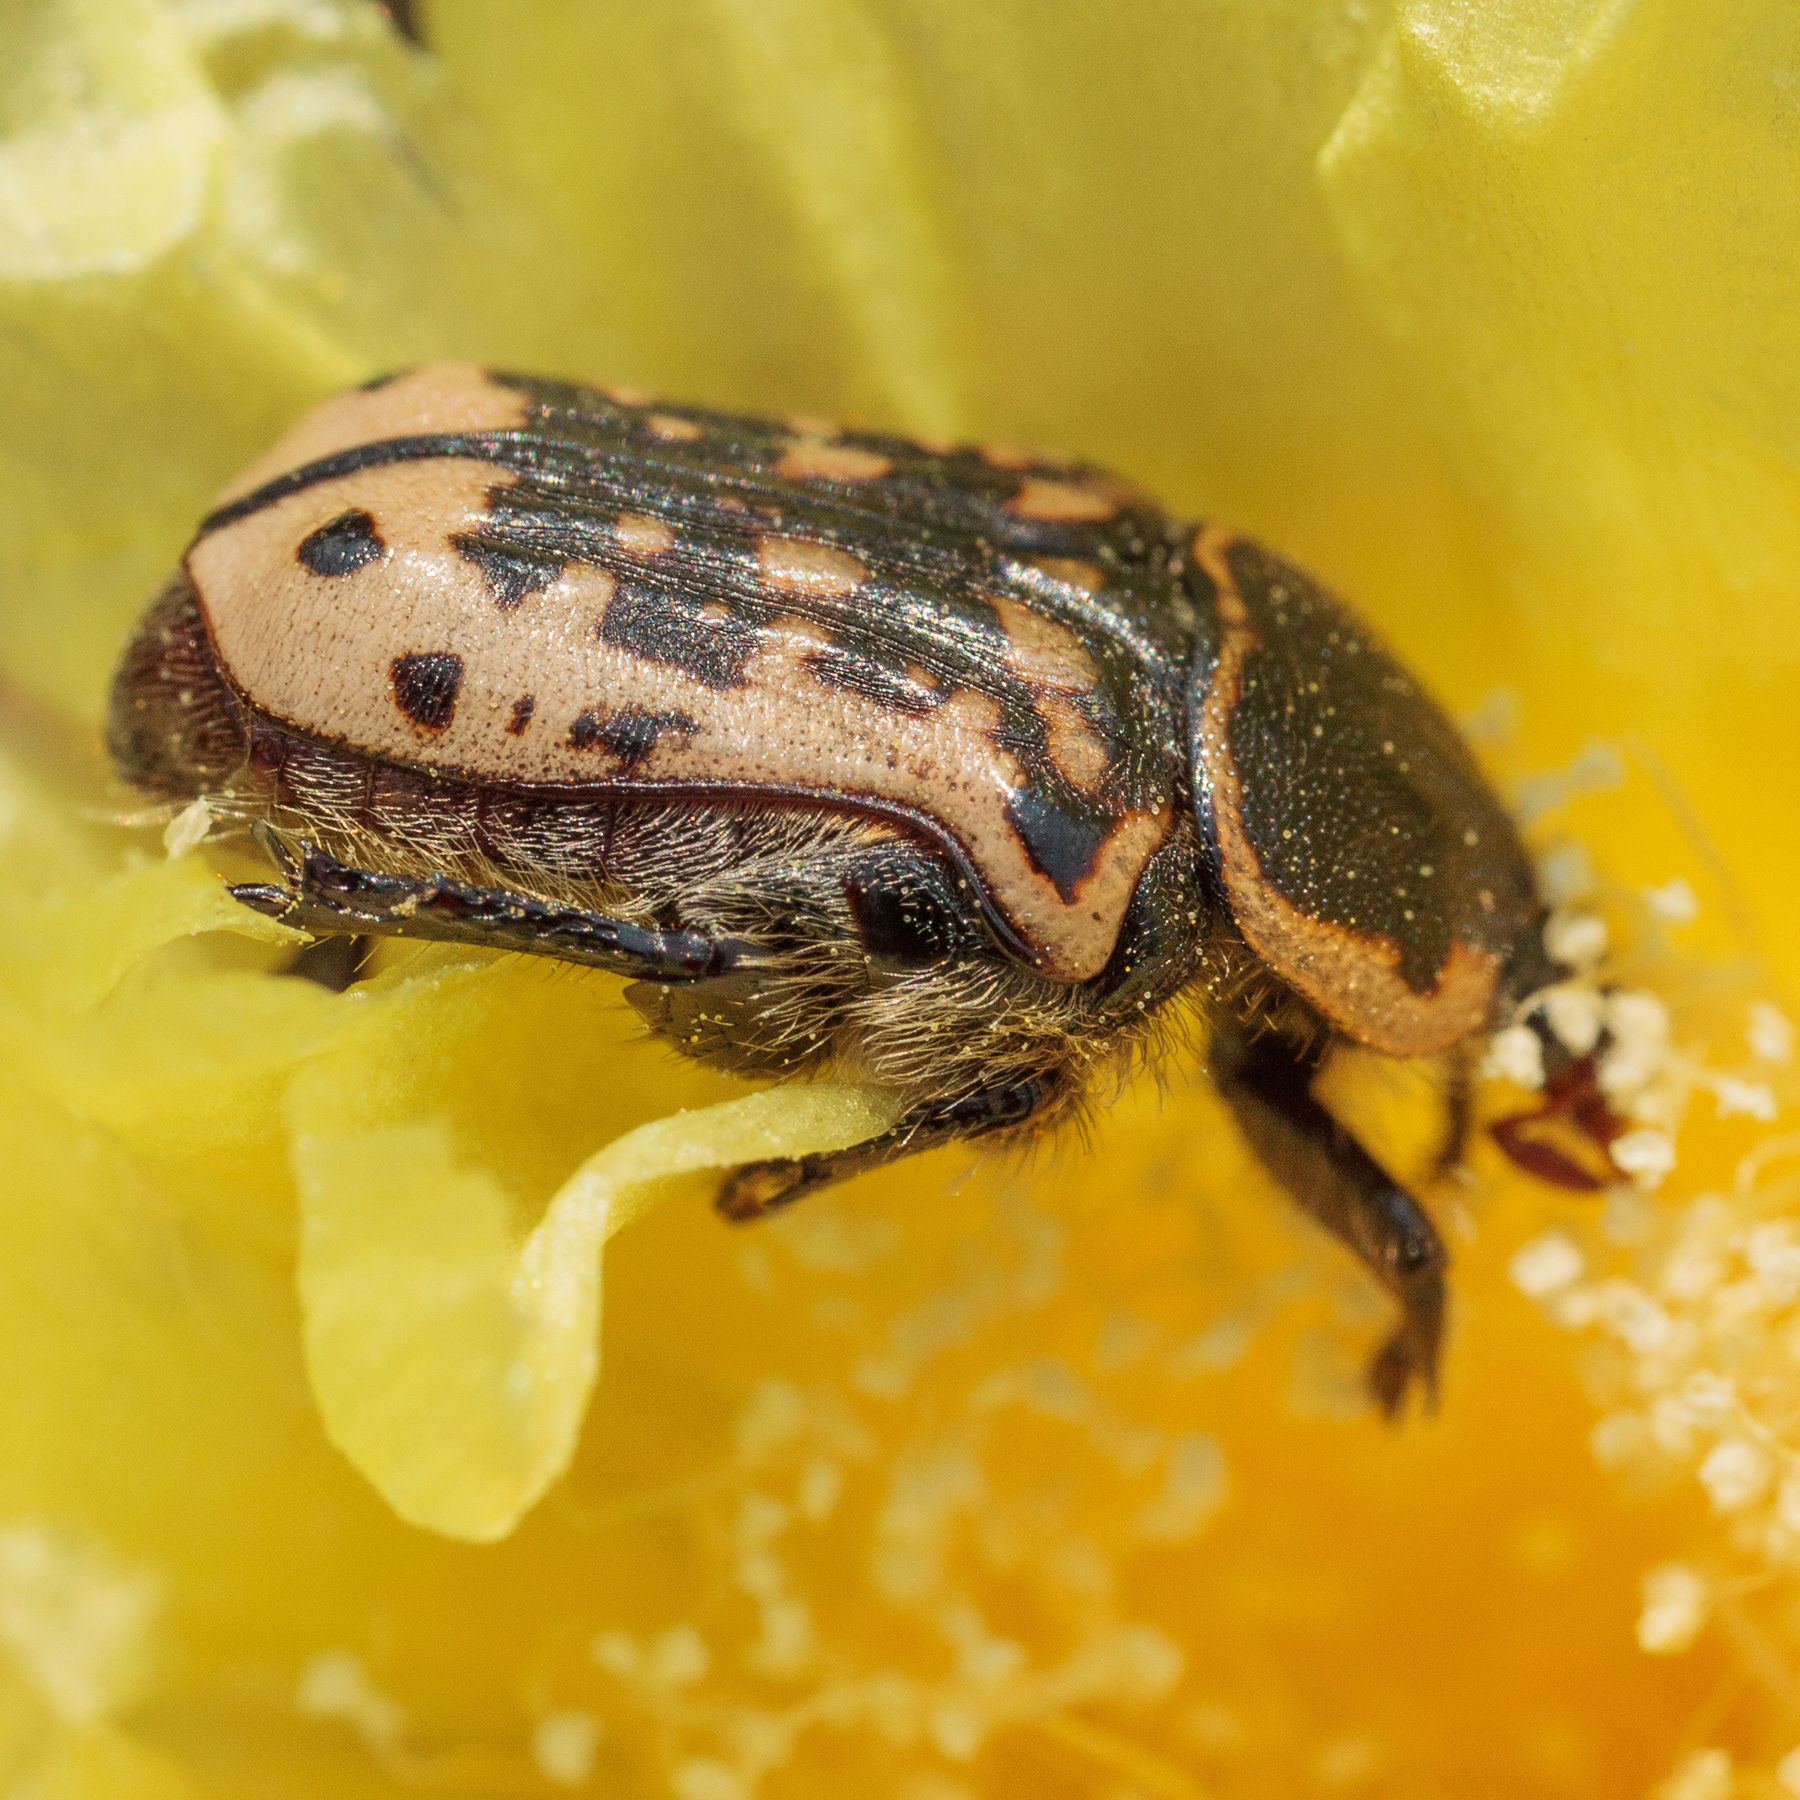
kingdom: Animalia
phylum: Arthropoda
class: Insecta
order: Coleoptera
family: Scarabaeidae
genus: Euphoria
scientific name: Euphoria kernii
